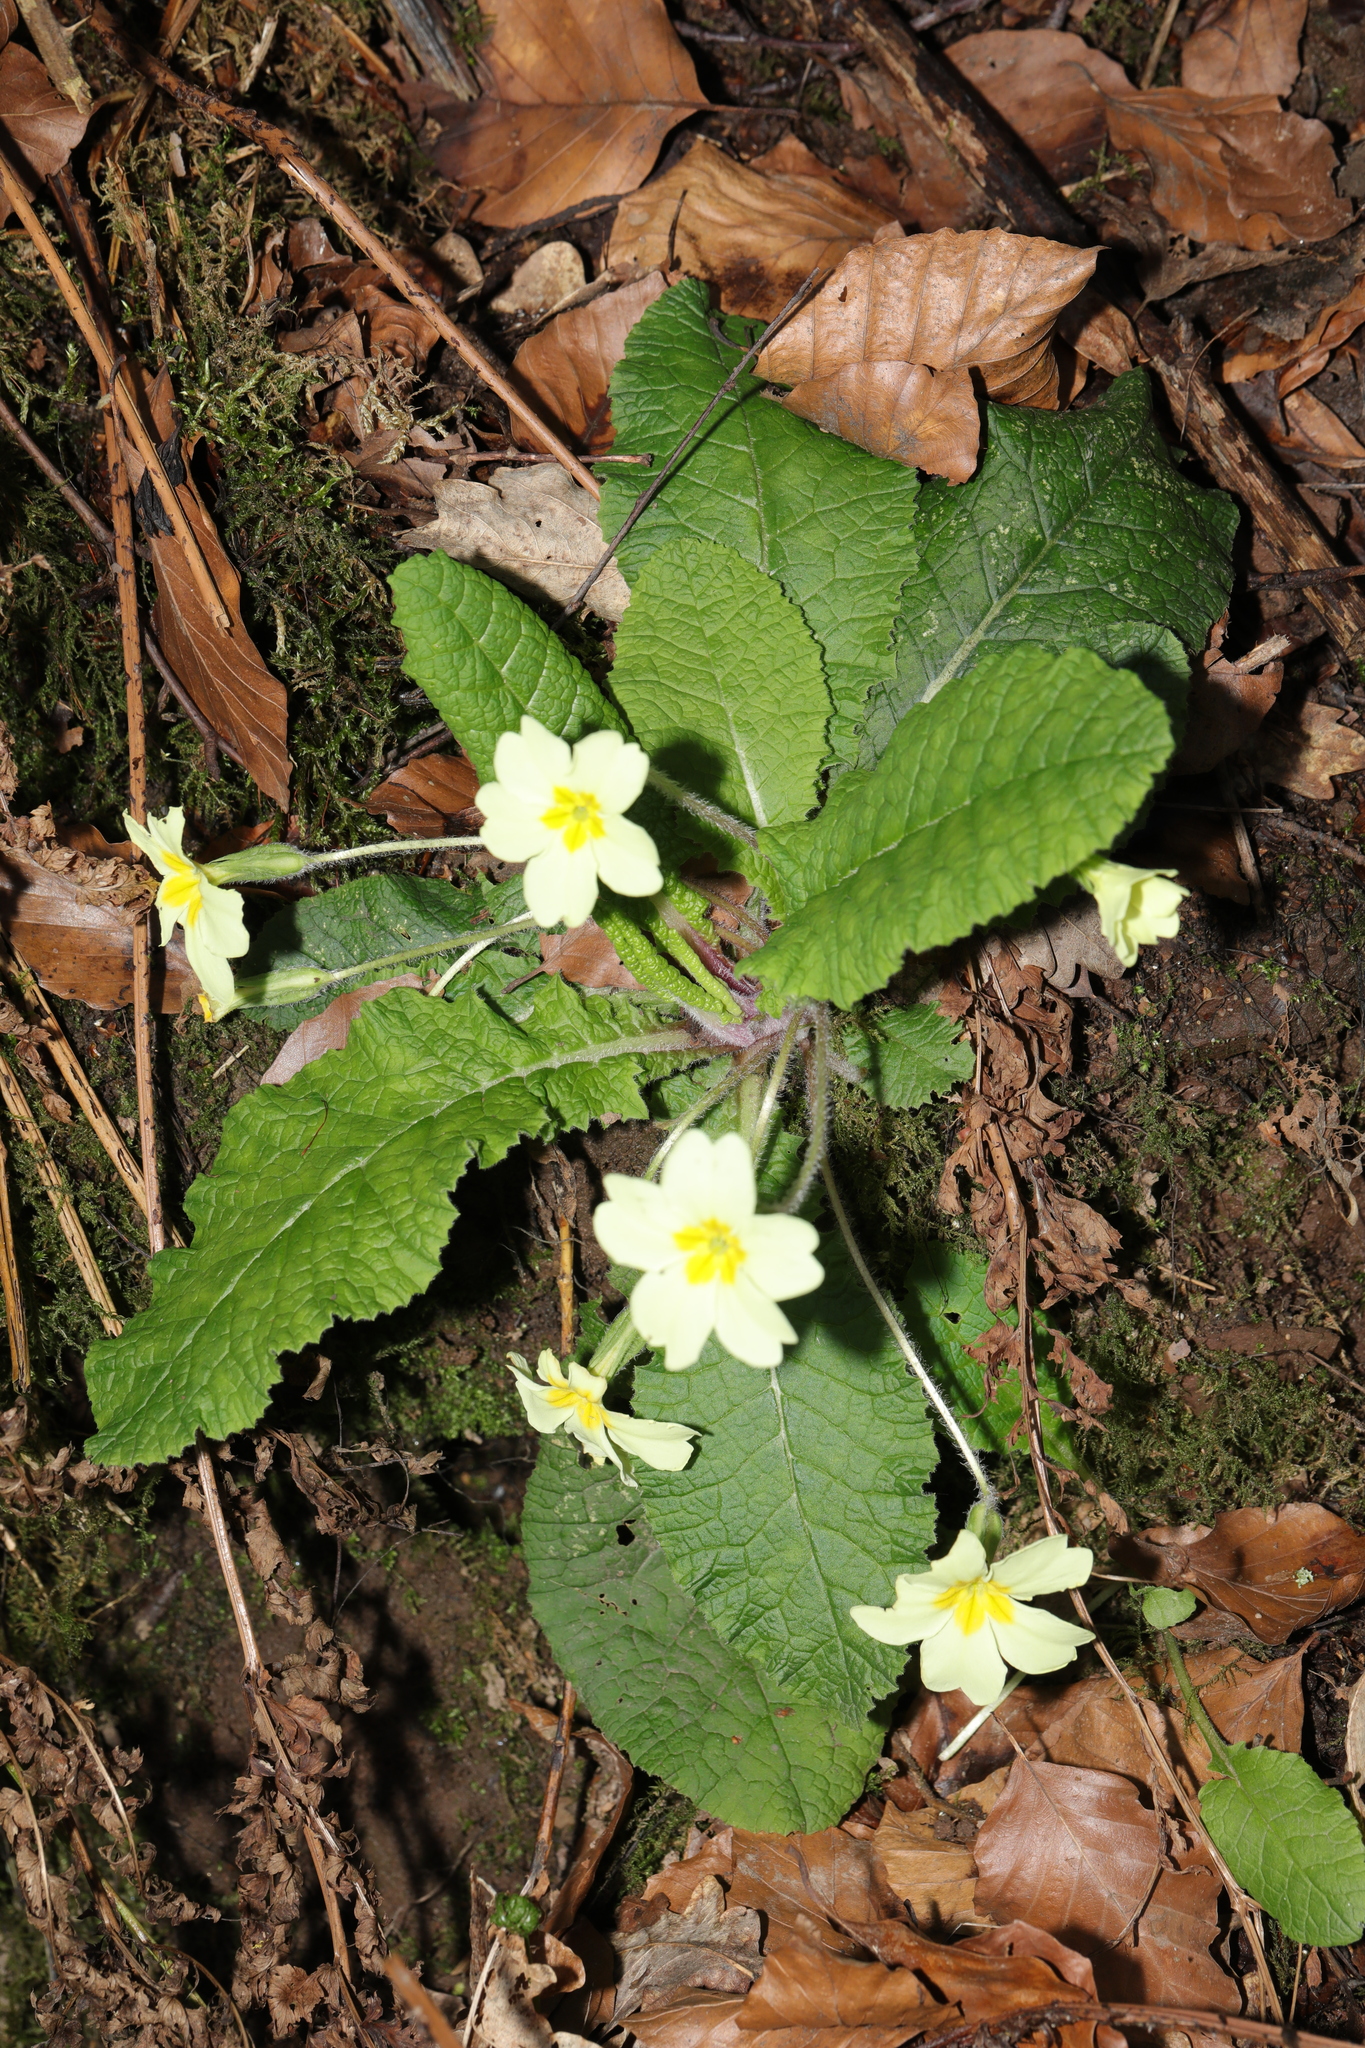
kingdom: Plantae
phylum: Tracheophyta
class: Magnoliopsida
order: Ericales
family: Primulaceae
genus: Primula
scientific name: Primula vulgaris
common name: Primrose
